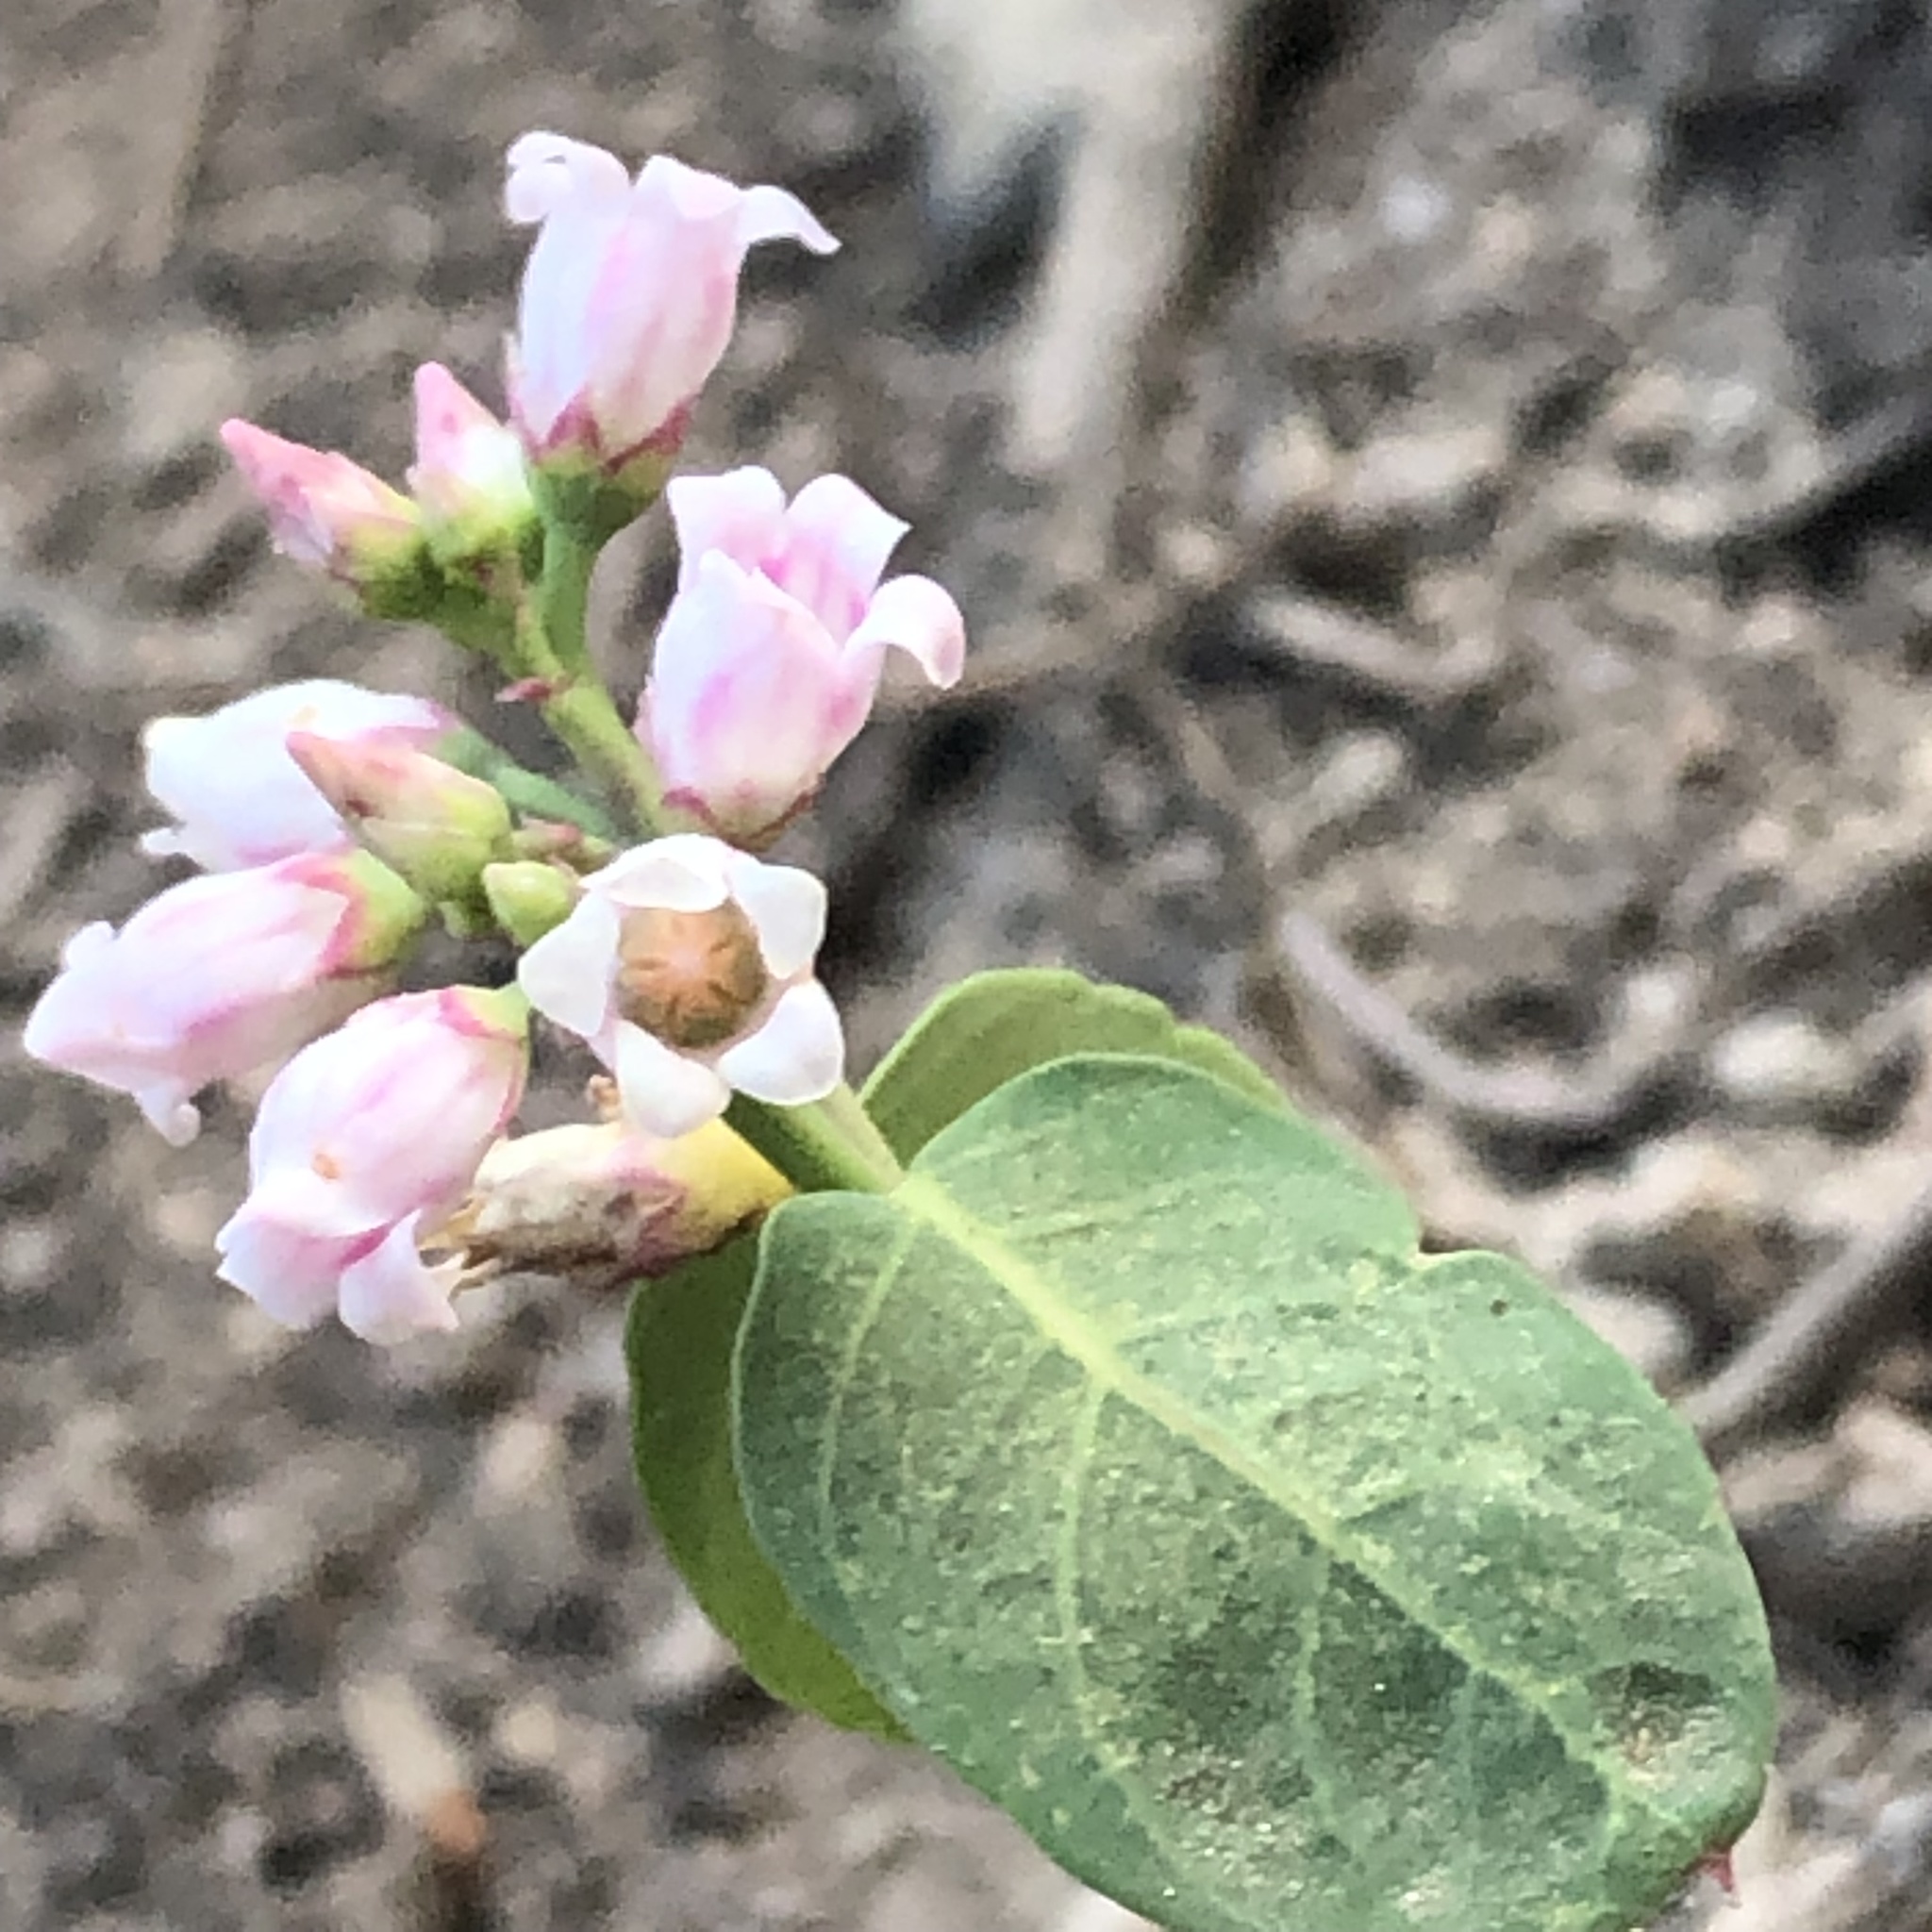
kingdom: Plantae
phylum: Tracheophyta
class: Magnoliopsida
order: Gentianales
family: Apocynaceae
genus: Apocynum
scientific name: Apocynum androsaemifolium
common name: Spreading dogbane
